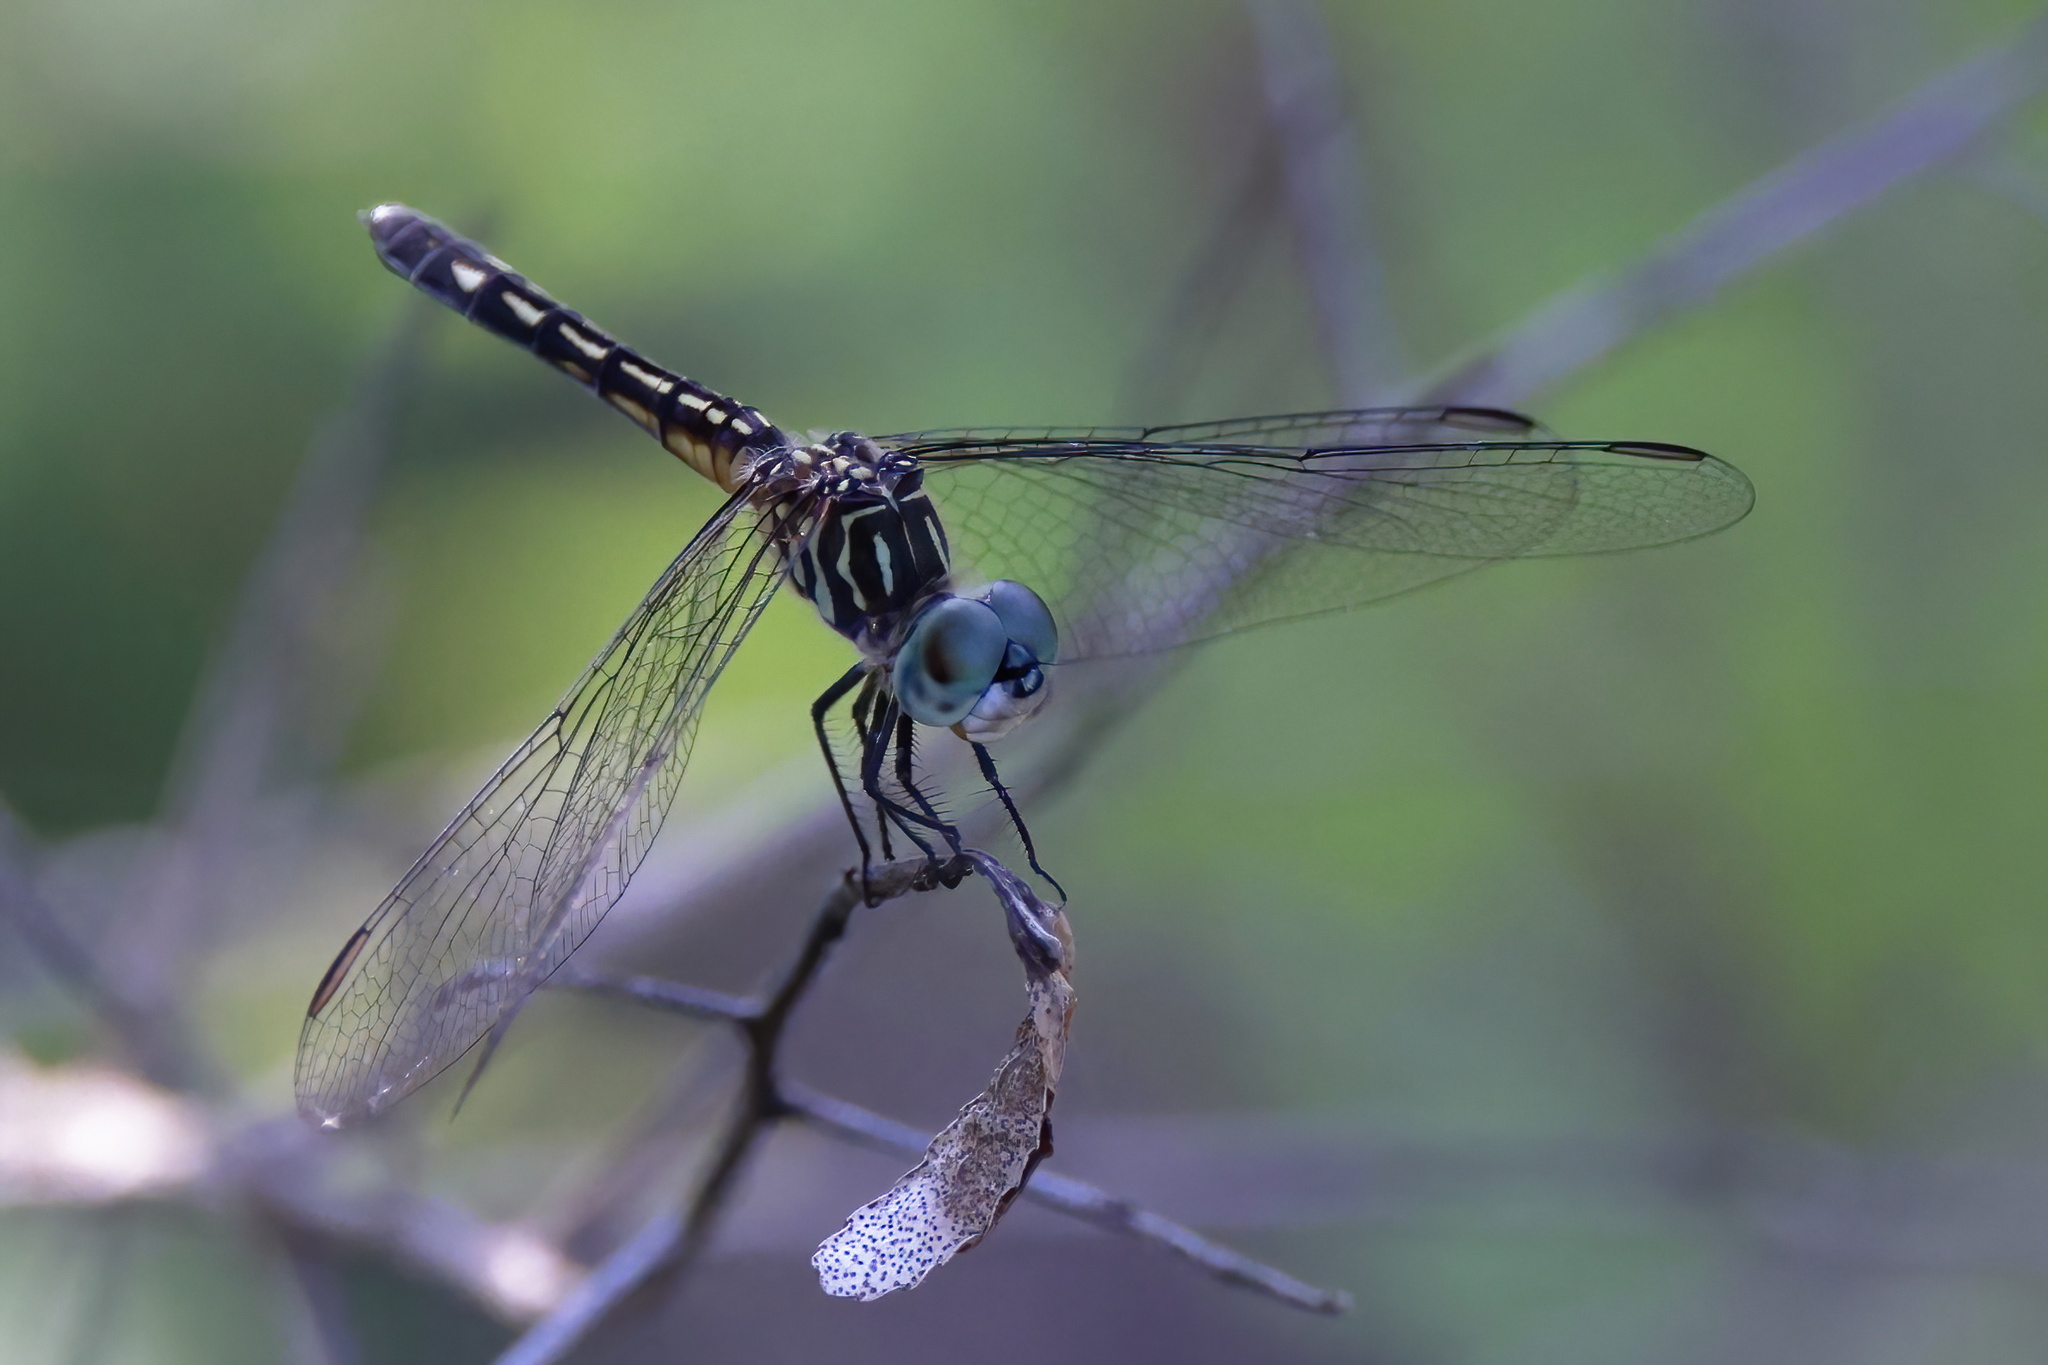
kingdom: Animalia
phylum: Arthropoda
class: Insecta
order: Odonata
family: Libellulidae
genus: Pachydiplax
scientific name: Pachydiplax longipennis
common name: Blue dasher
